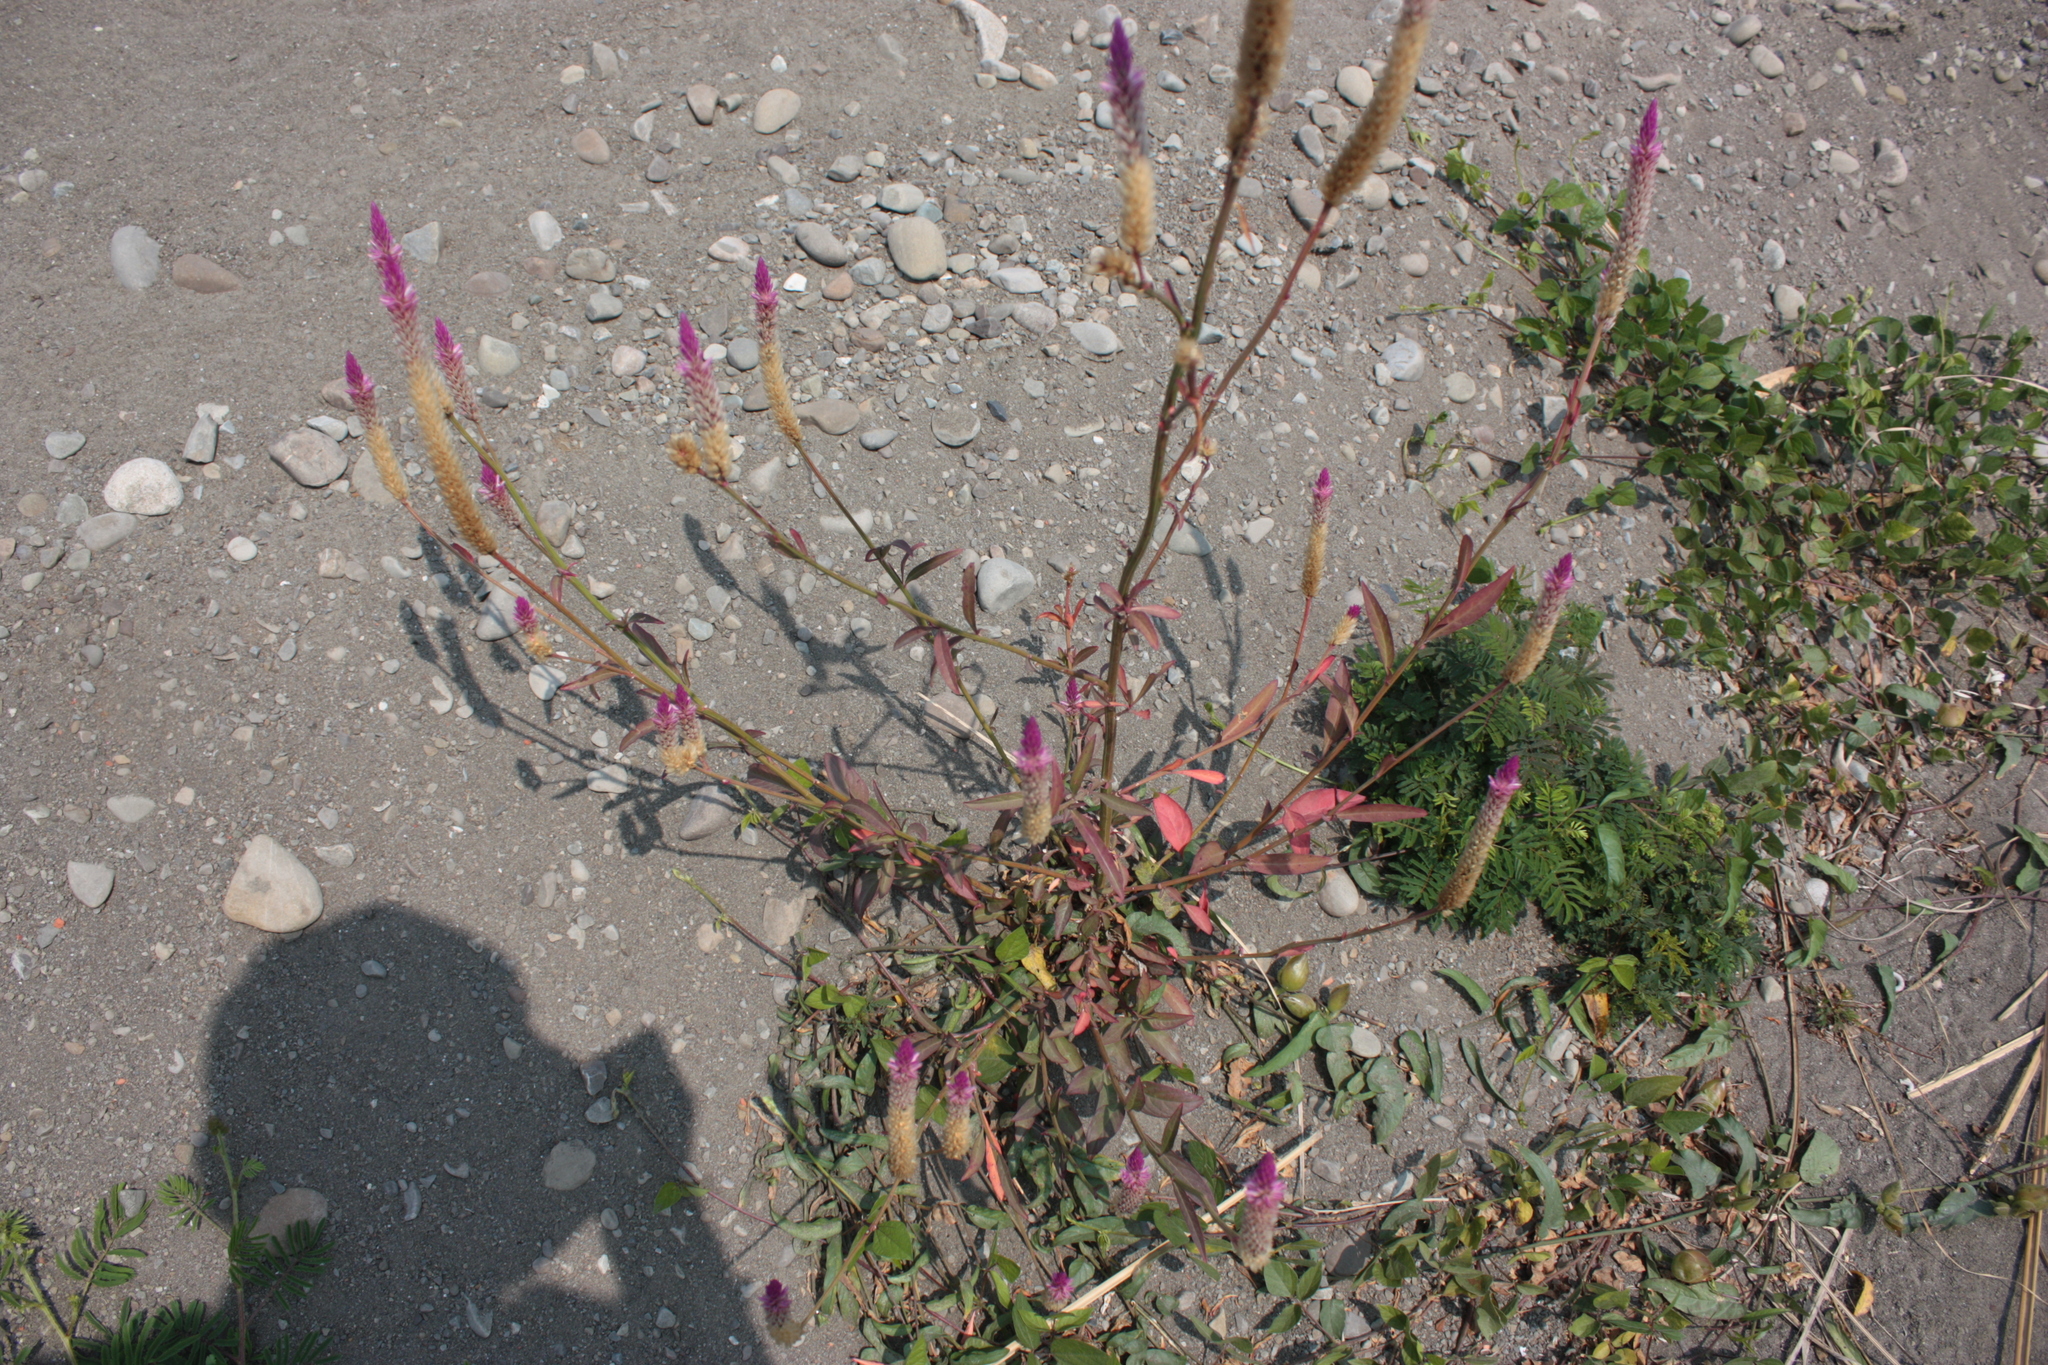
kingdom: Plantae
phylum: Tracheophyta
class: Magnoliopsida
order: Caryophyllales
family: Amaranthaceae
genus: Celosia
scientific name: Celosia argentea
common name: Feather cockscomb
